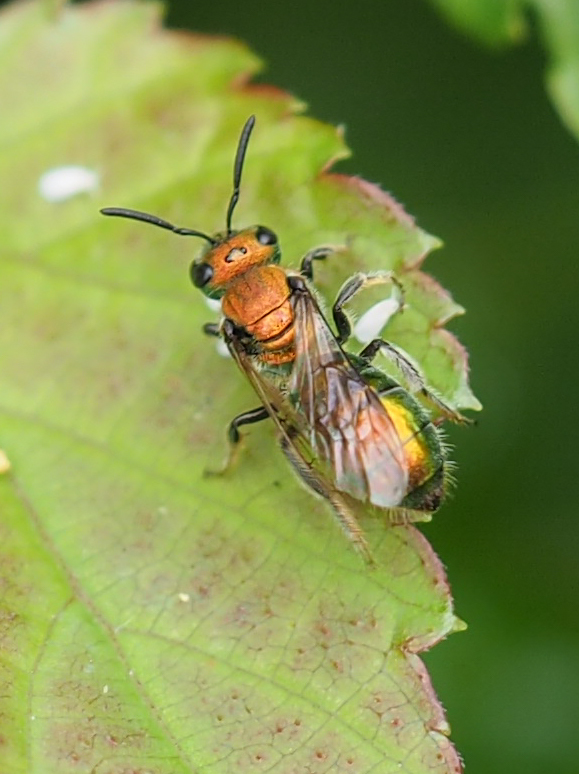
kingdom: Animalia
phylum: Arthropoda
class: Insecta
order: Hymenoptera
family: Halictidae
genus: Augochlora
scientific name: Augochlora pura
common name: Pure green sweat bee
